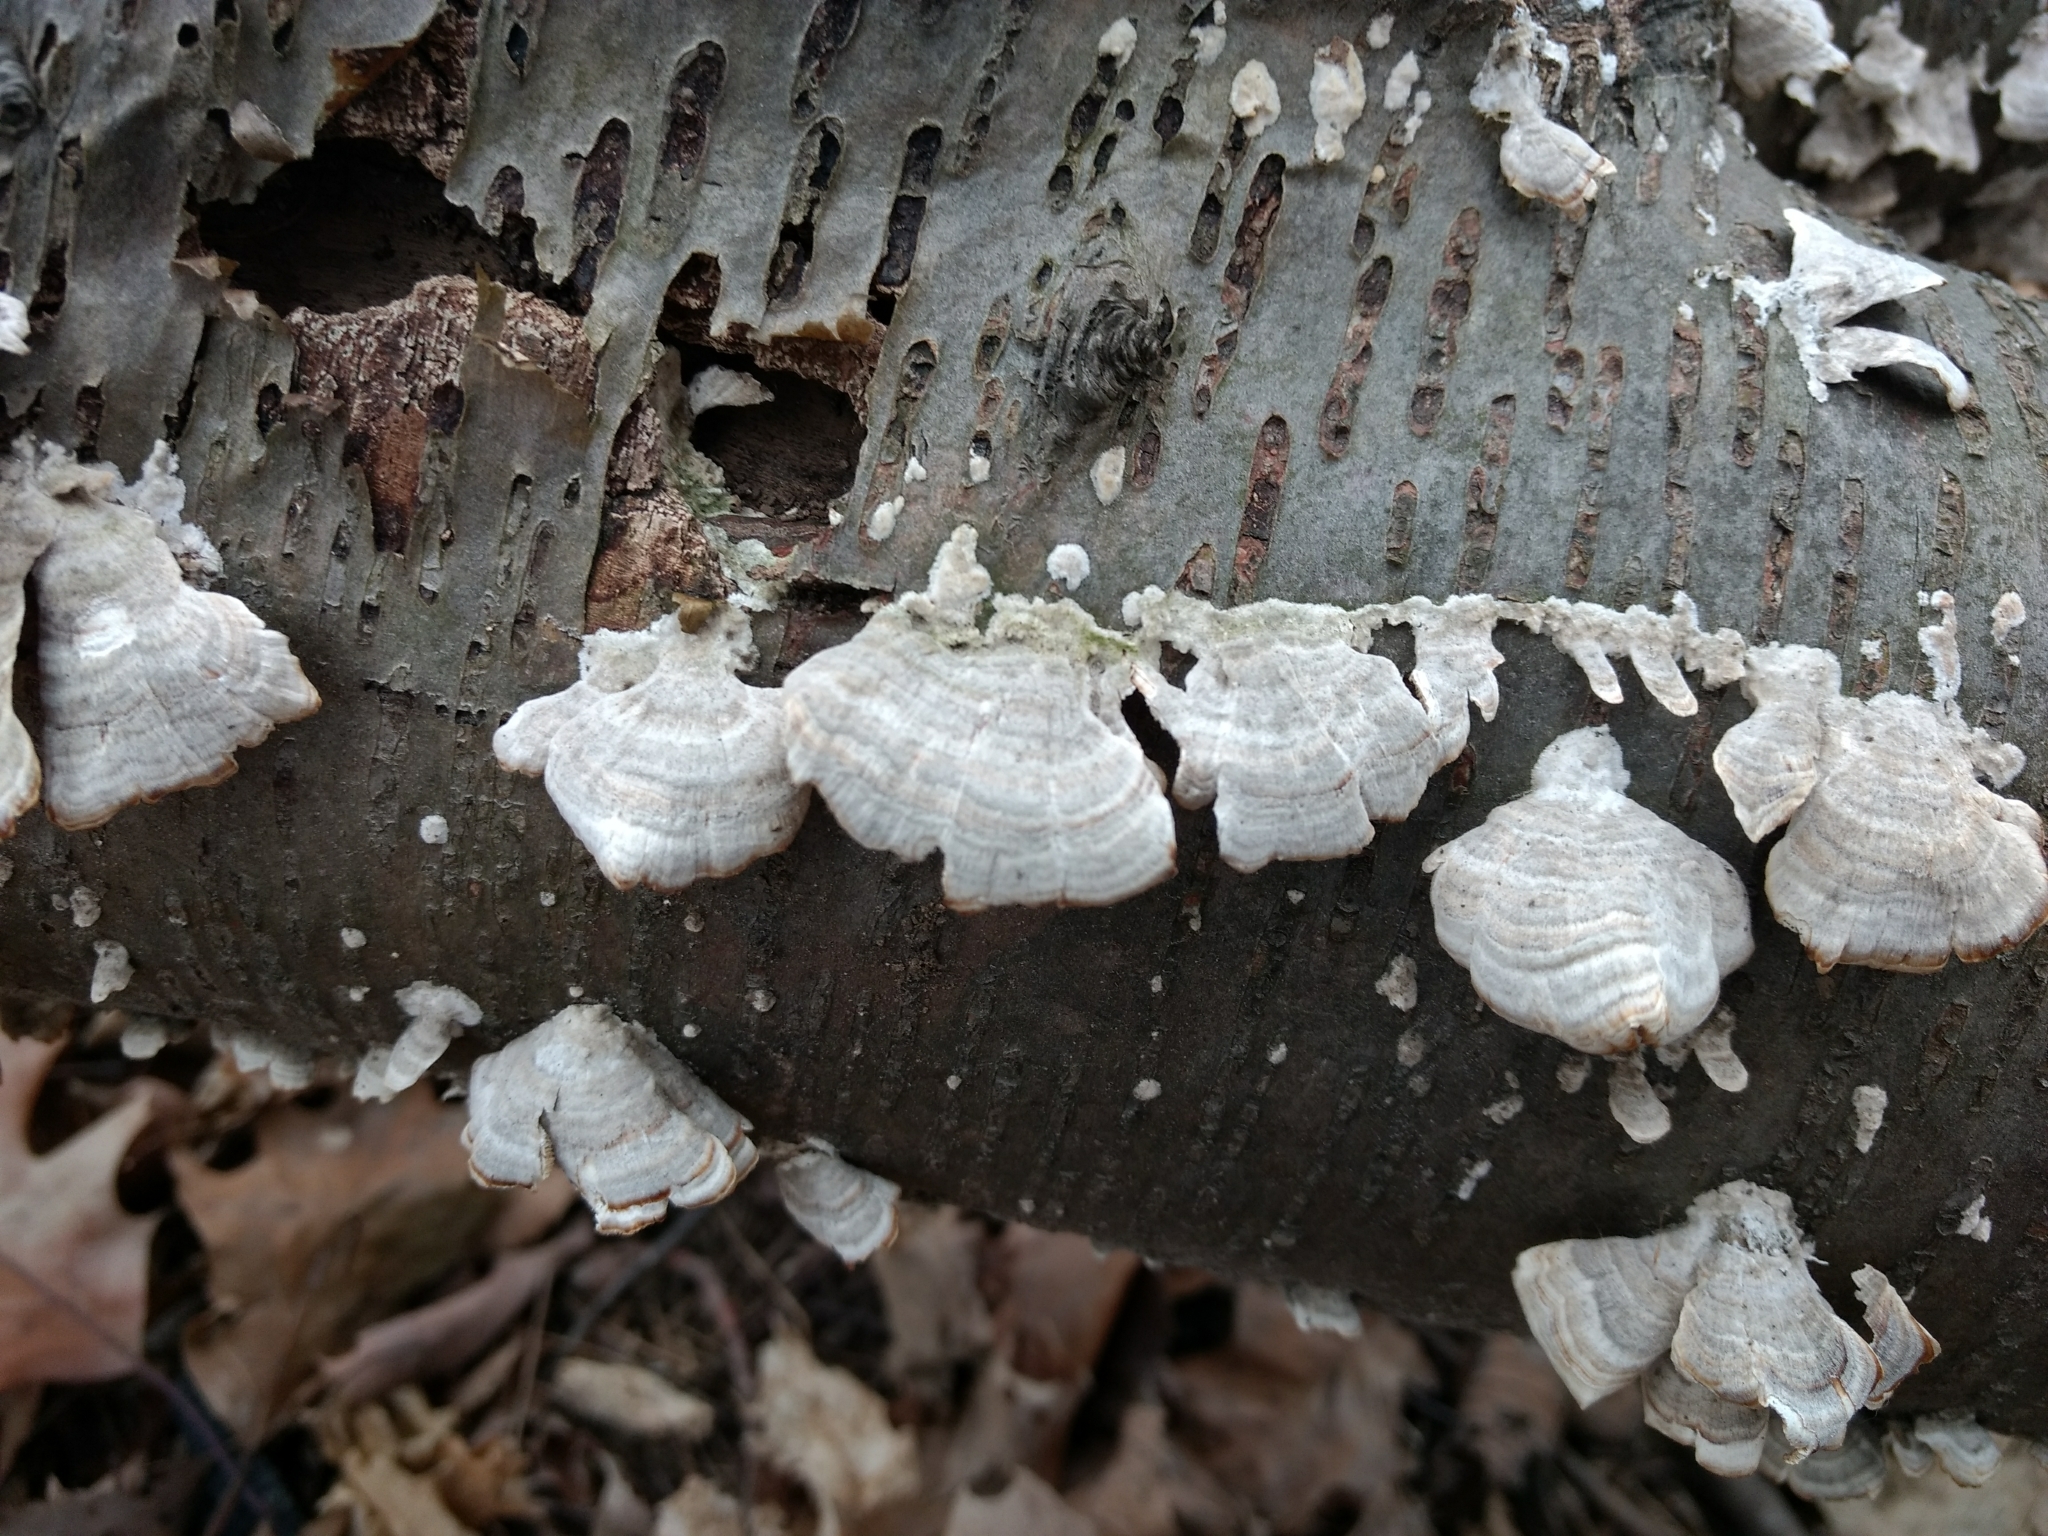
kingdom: Fungi
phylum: Basidiomycota
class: Agaricomycetes
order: Hymenochaetales
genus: Trichaptum
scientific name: Trichaptum biforme
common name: Violet-toothed polypore
